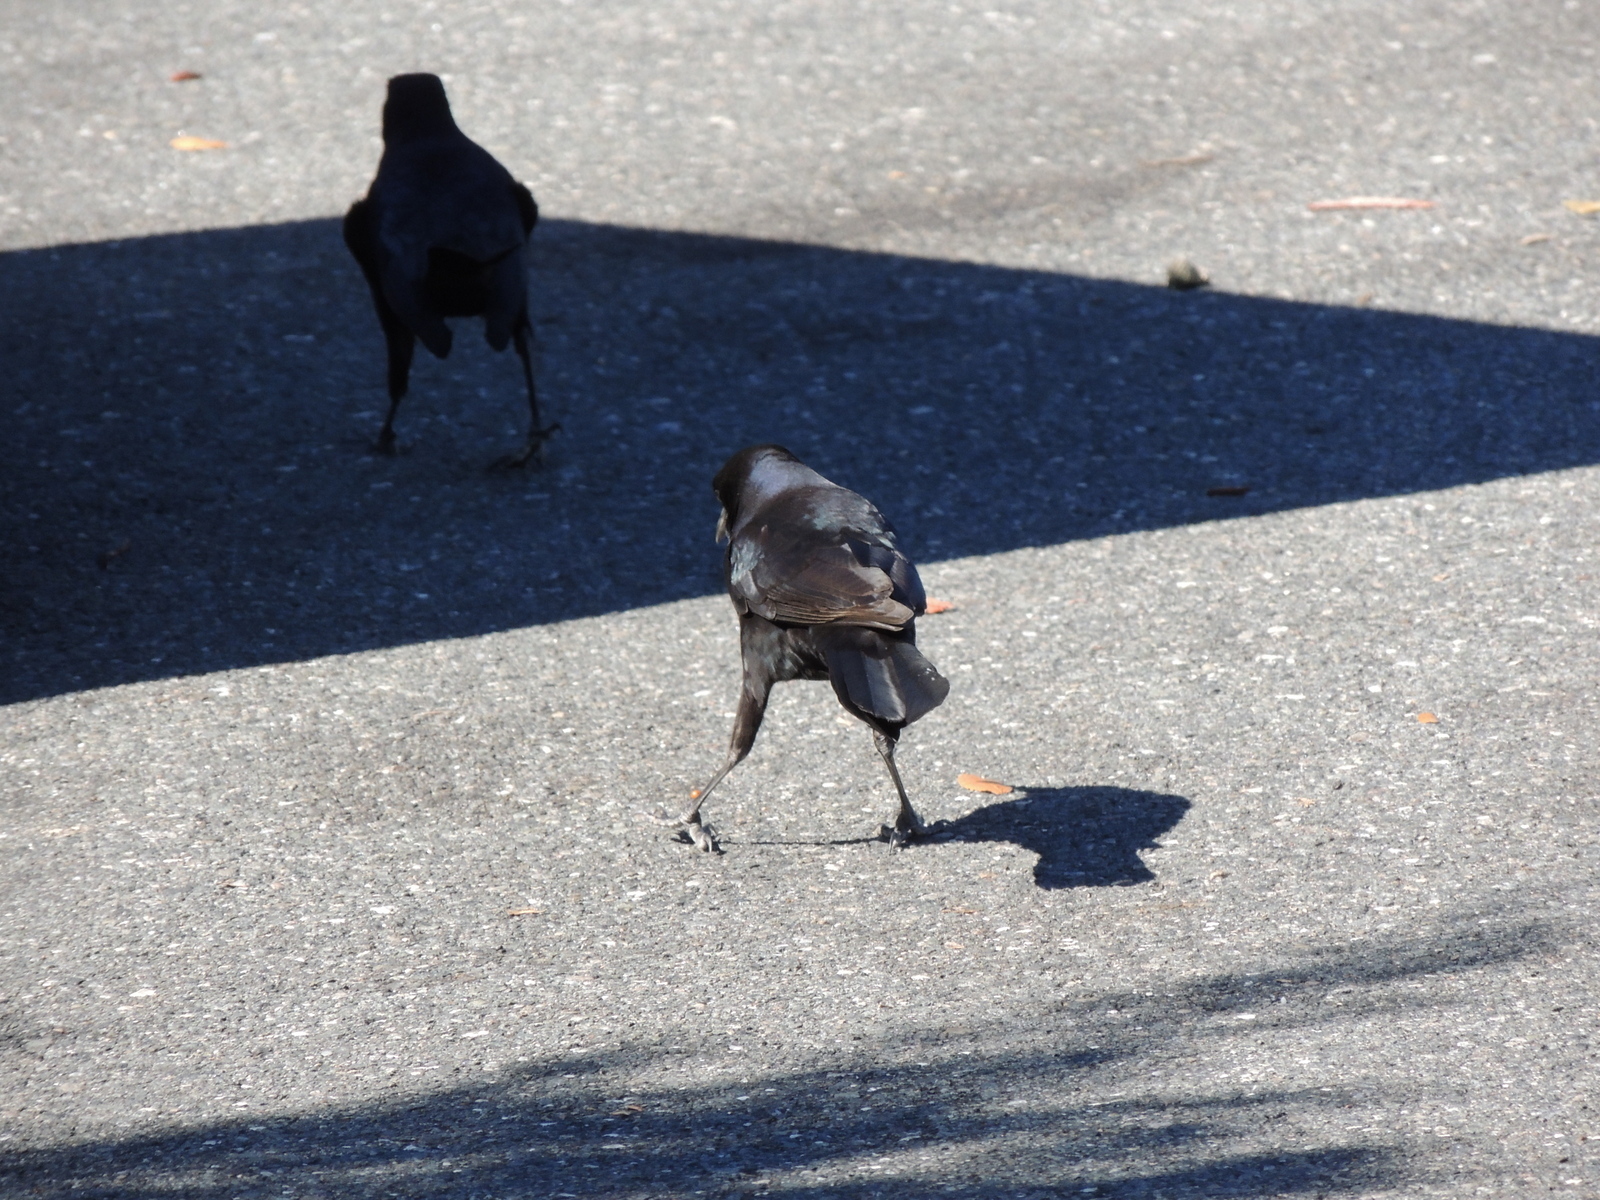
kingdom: Animalia
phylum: Chordata
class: Aves
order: Passeriformes
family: Icteridae
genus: Quiscalus
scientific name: Quiscalus major
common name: Boat-tailed grackle
